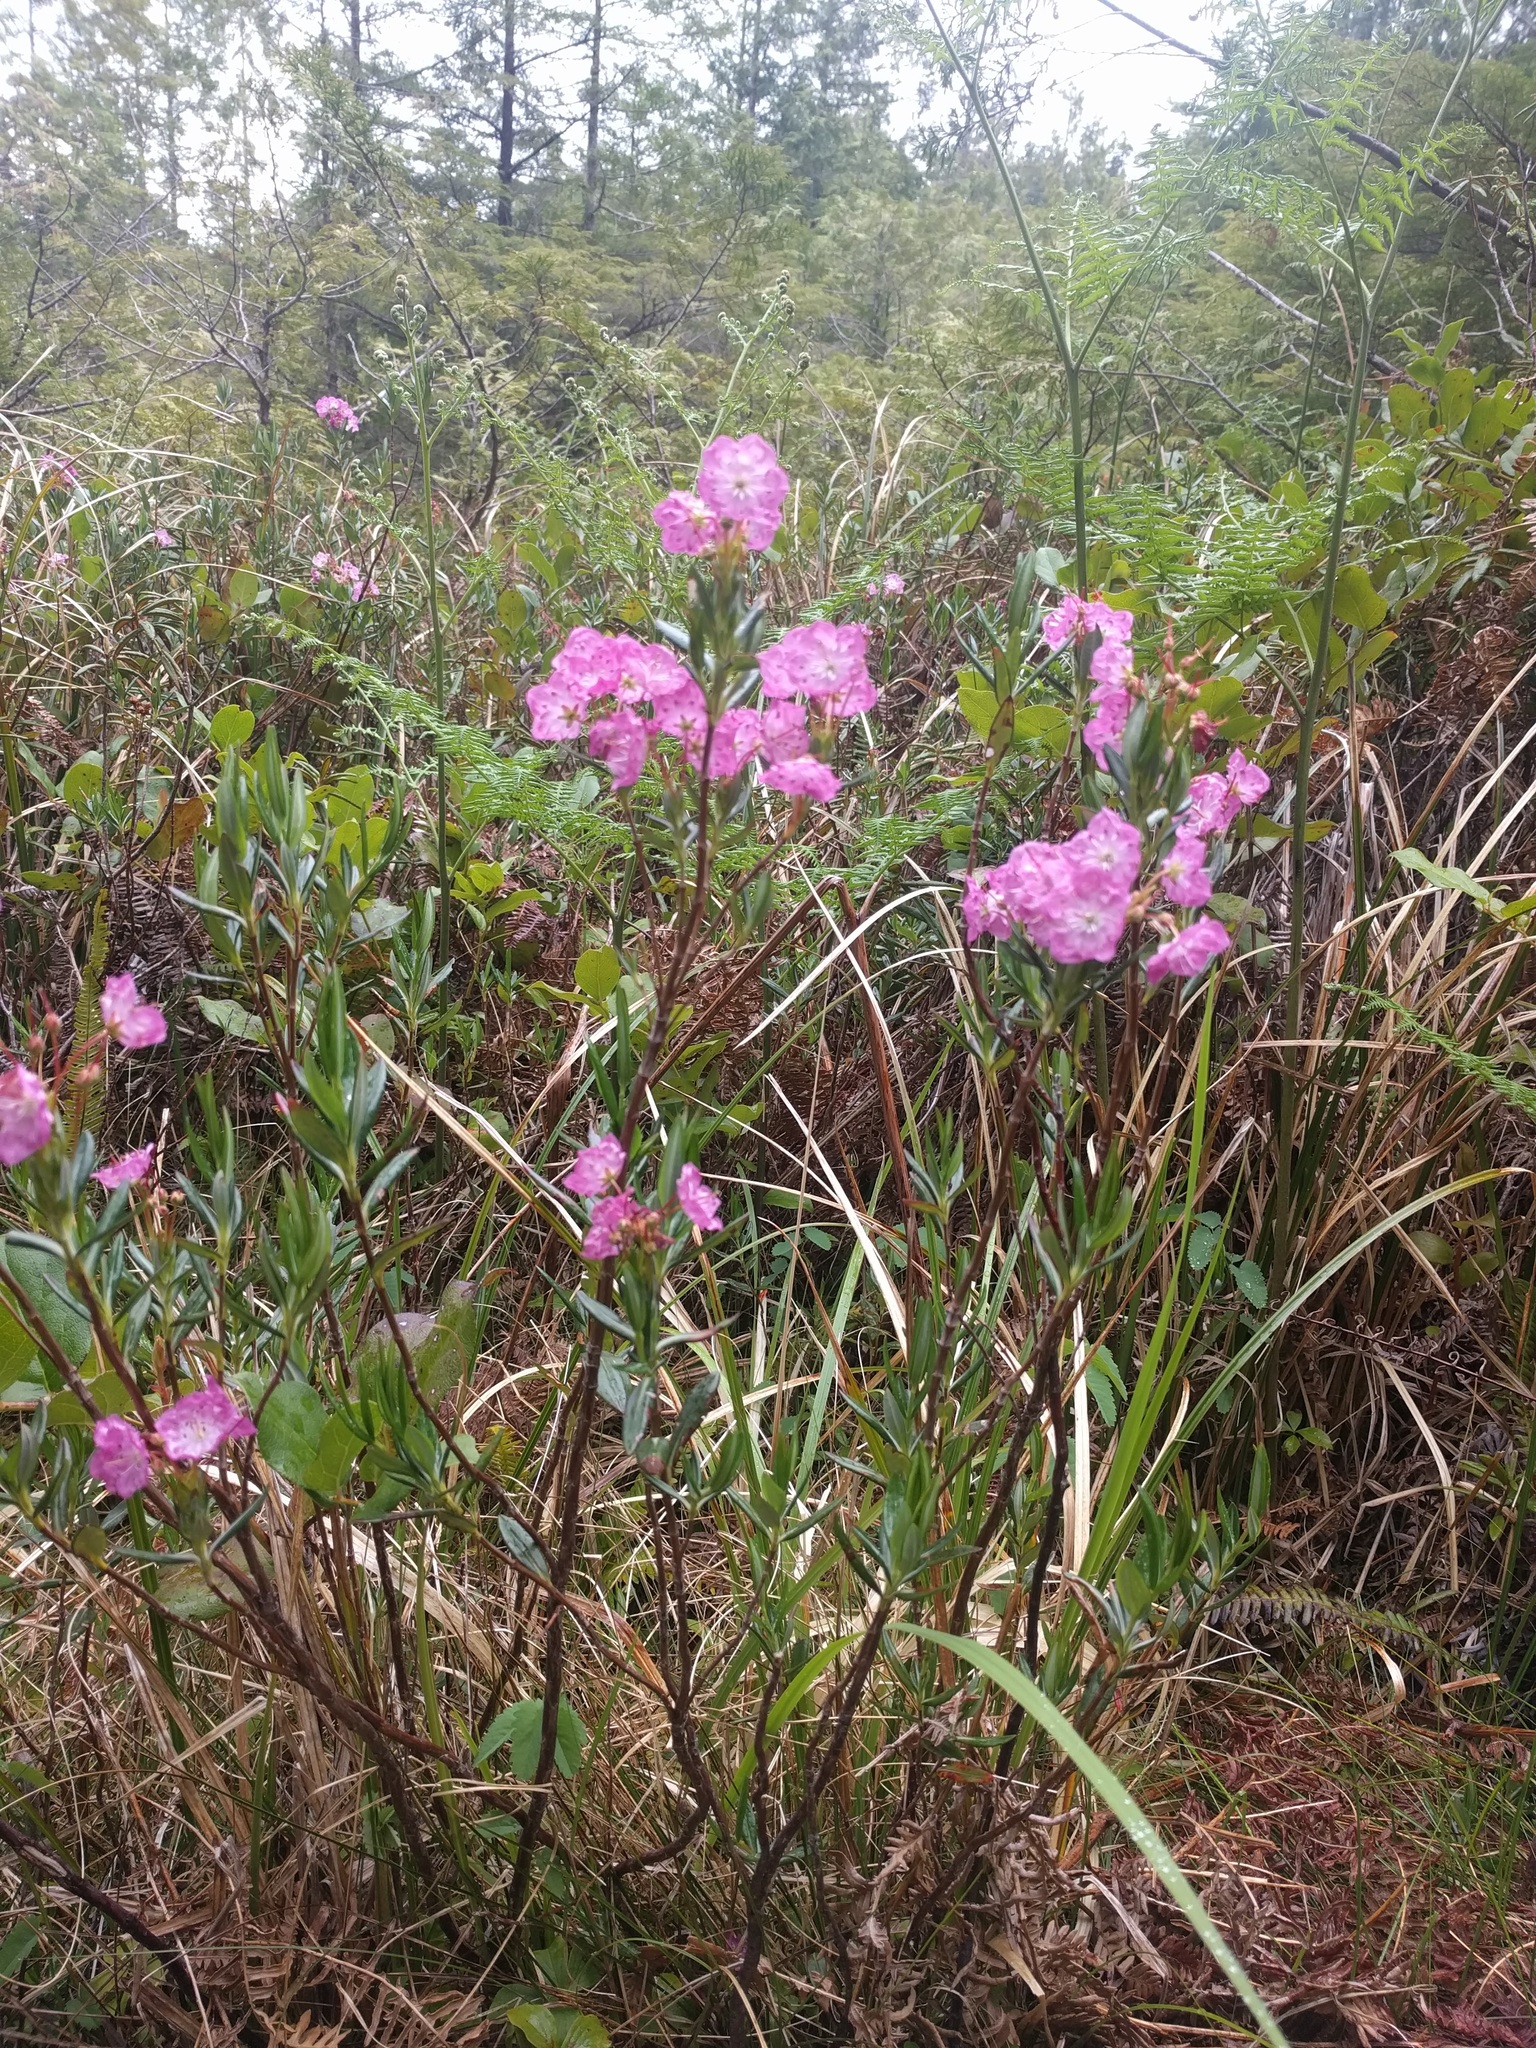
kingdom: Plantae
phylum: Tracheophyta
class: Magnoliopsida
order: Ericales
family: Ericaceae
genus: Kalmia
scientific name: Kalmia microphylla
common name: Alpine bog laurel
